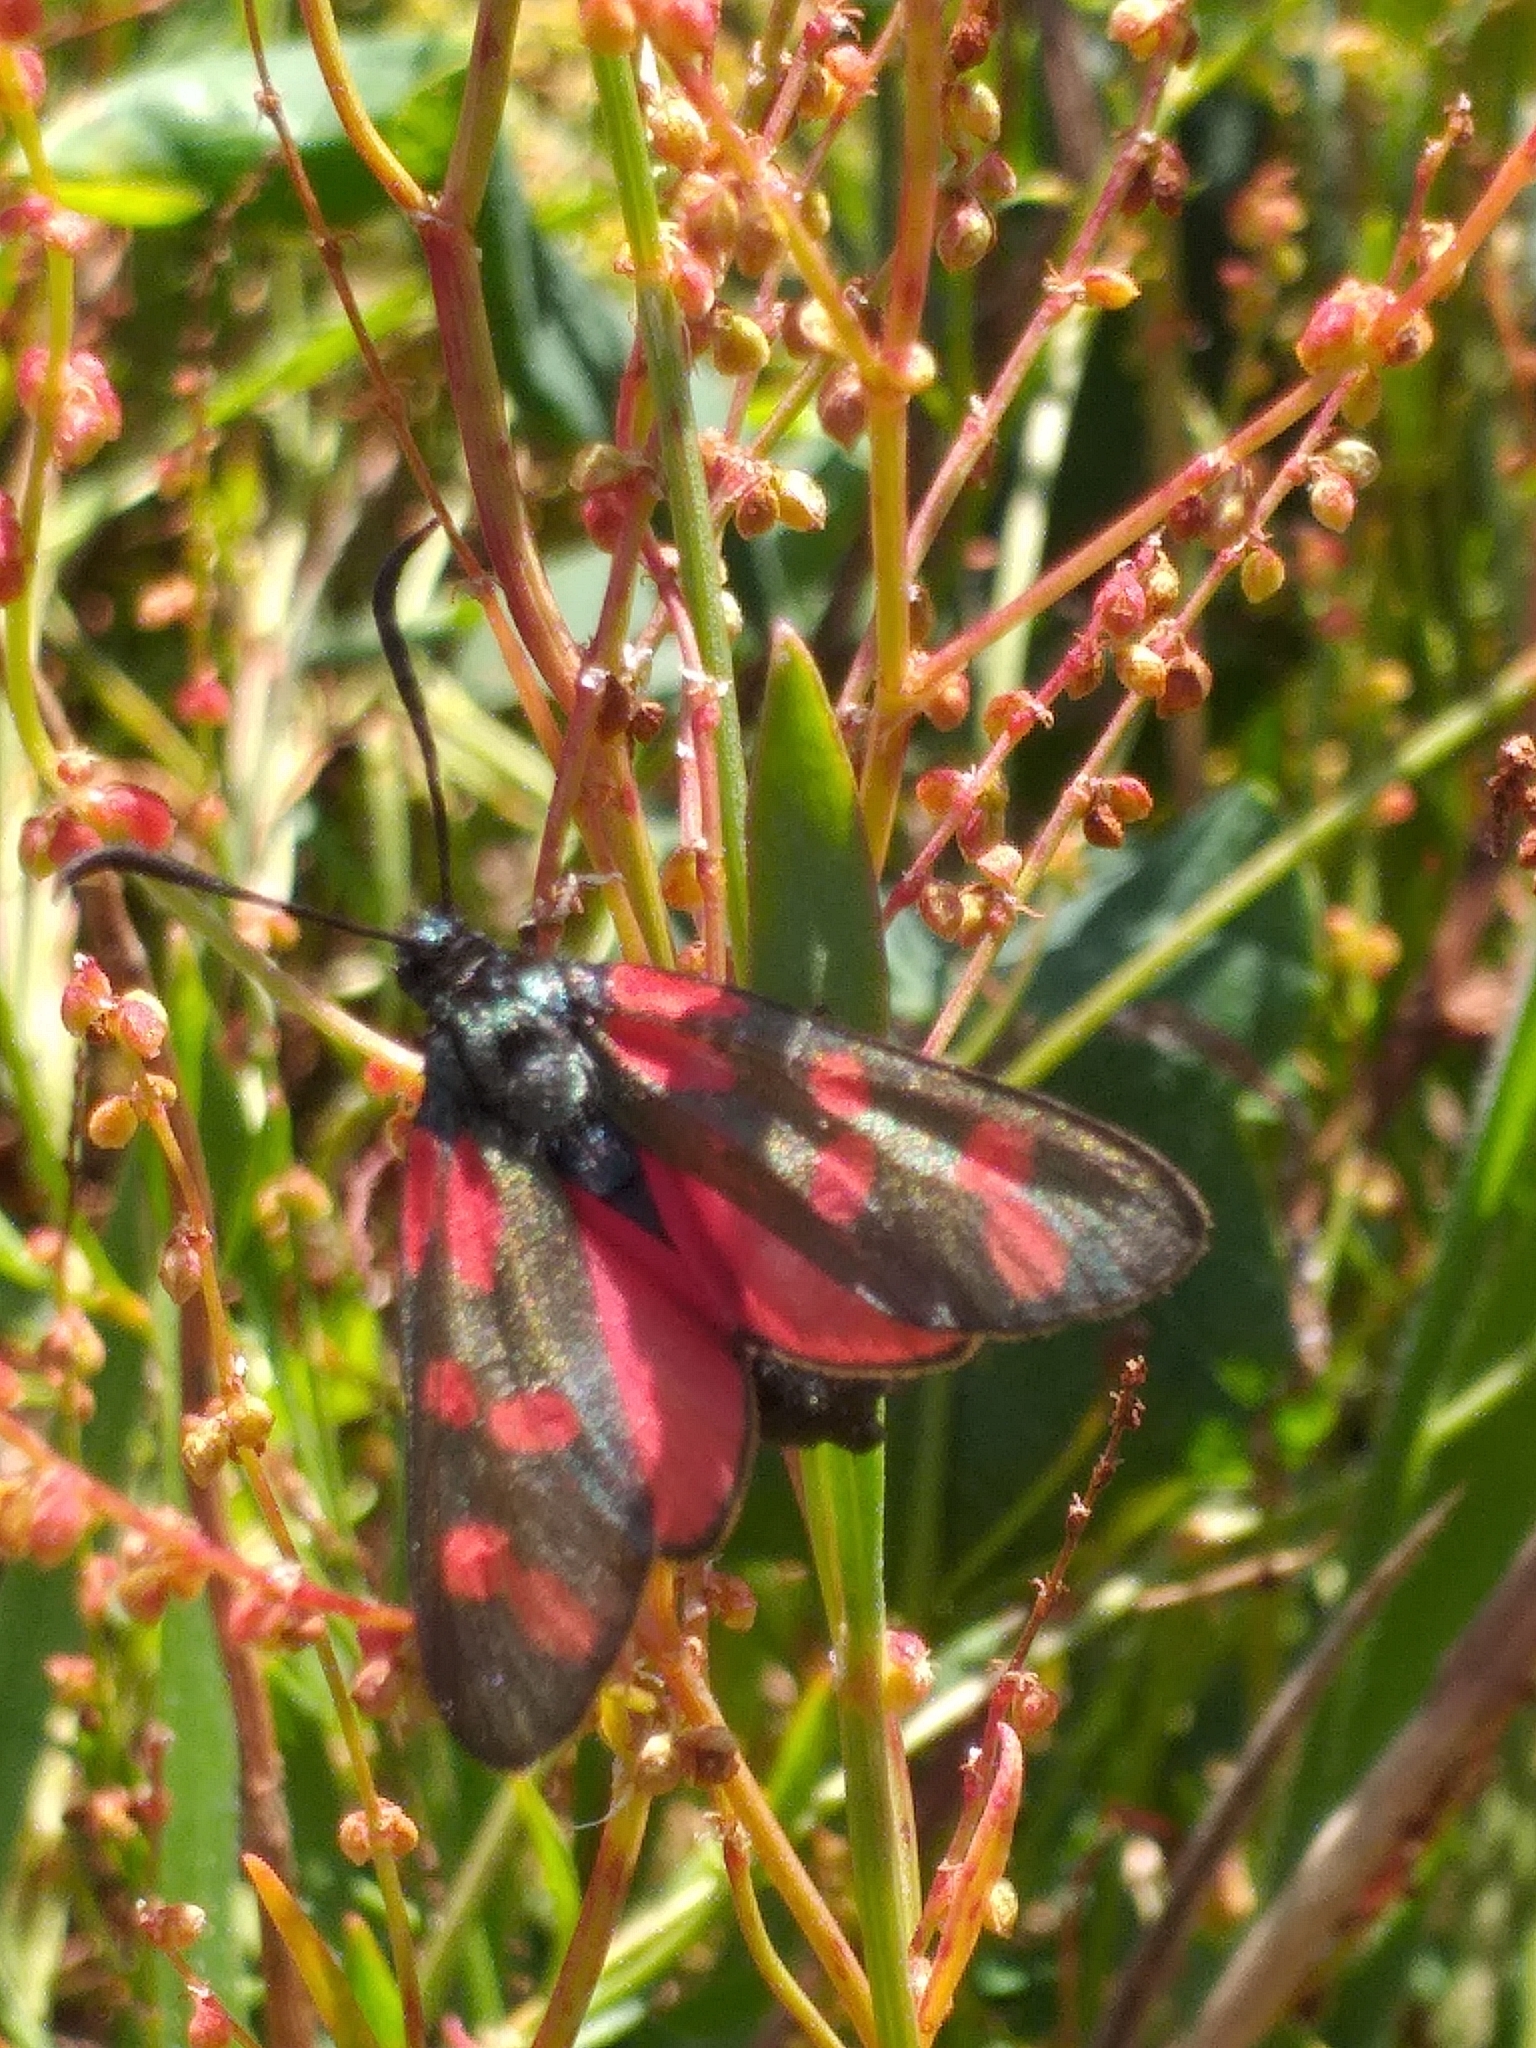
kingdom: Animalia
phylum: Arthropoda
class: Insecta
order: Lepidoptera
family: Zygaenidae
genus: Zygaena
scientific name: Zygaena filipendulae
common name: Six-spot burnet
